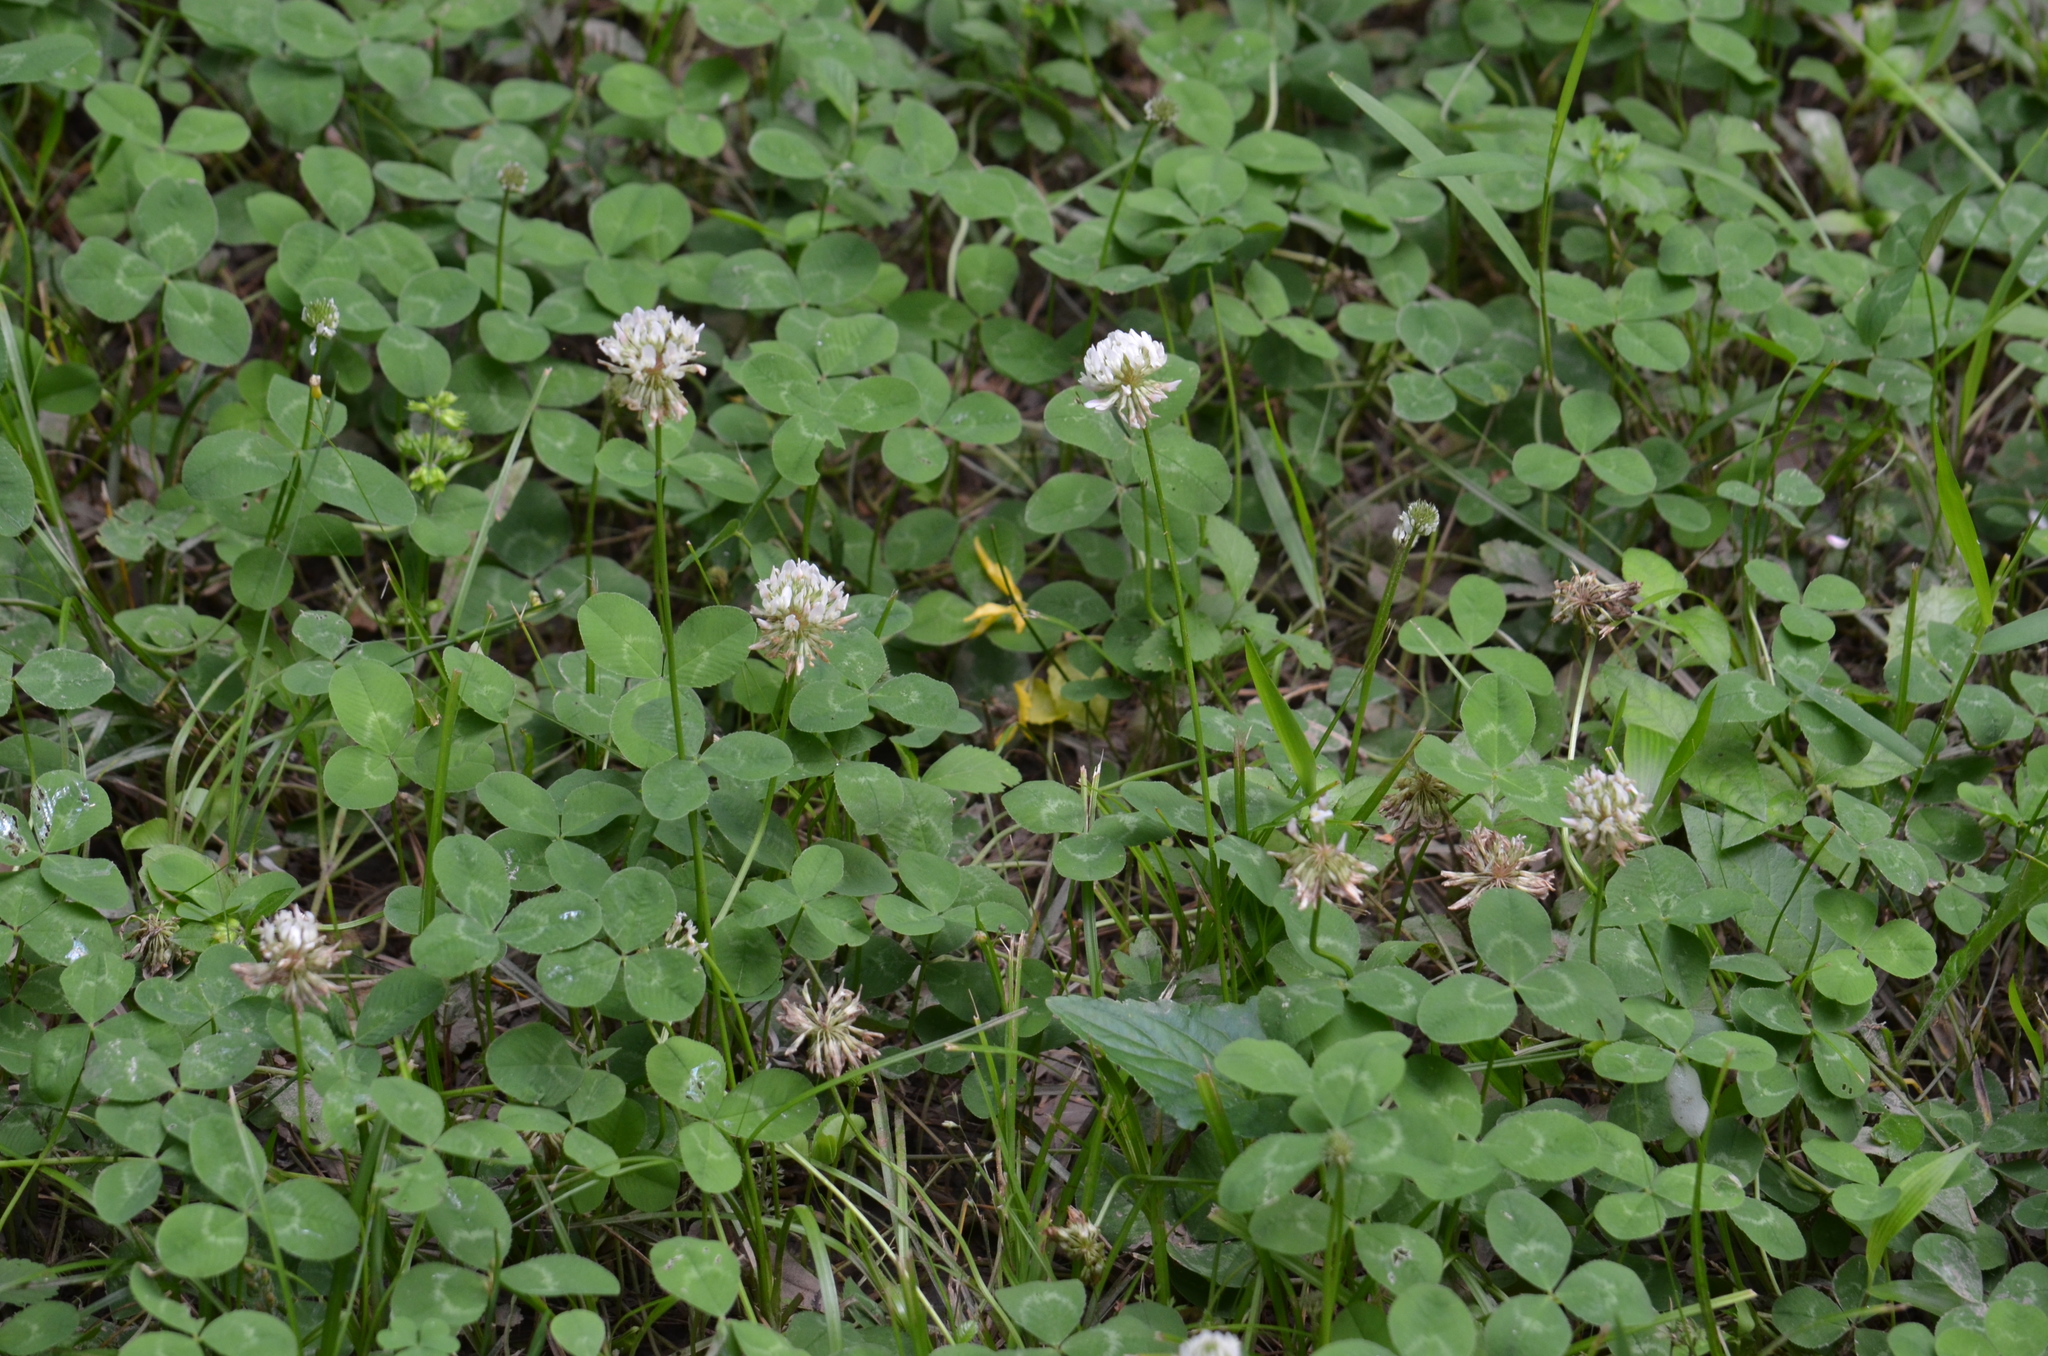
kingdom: Plantae
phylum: Tracheophyta
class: Magnoliopsida
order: Fabales
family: Fabaceae
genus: Trifolium
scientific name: Trifolium repens
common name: White clover
